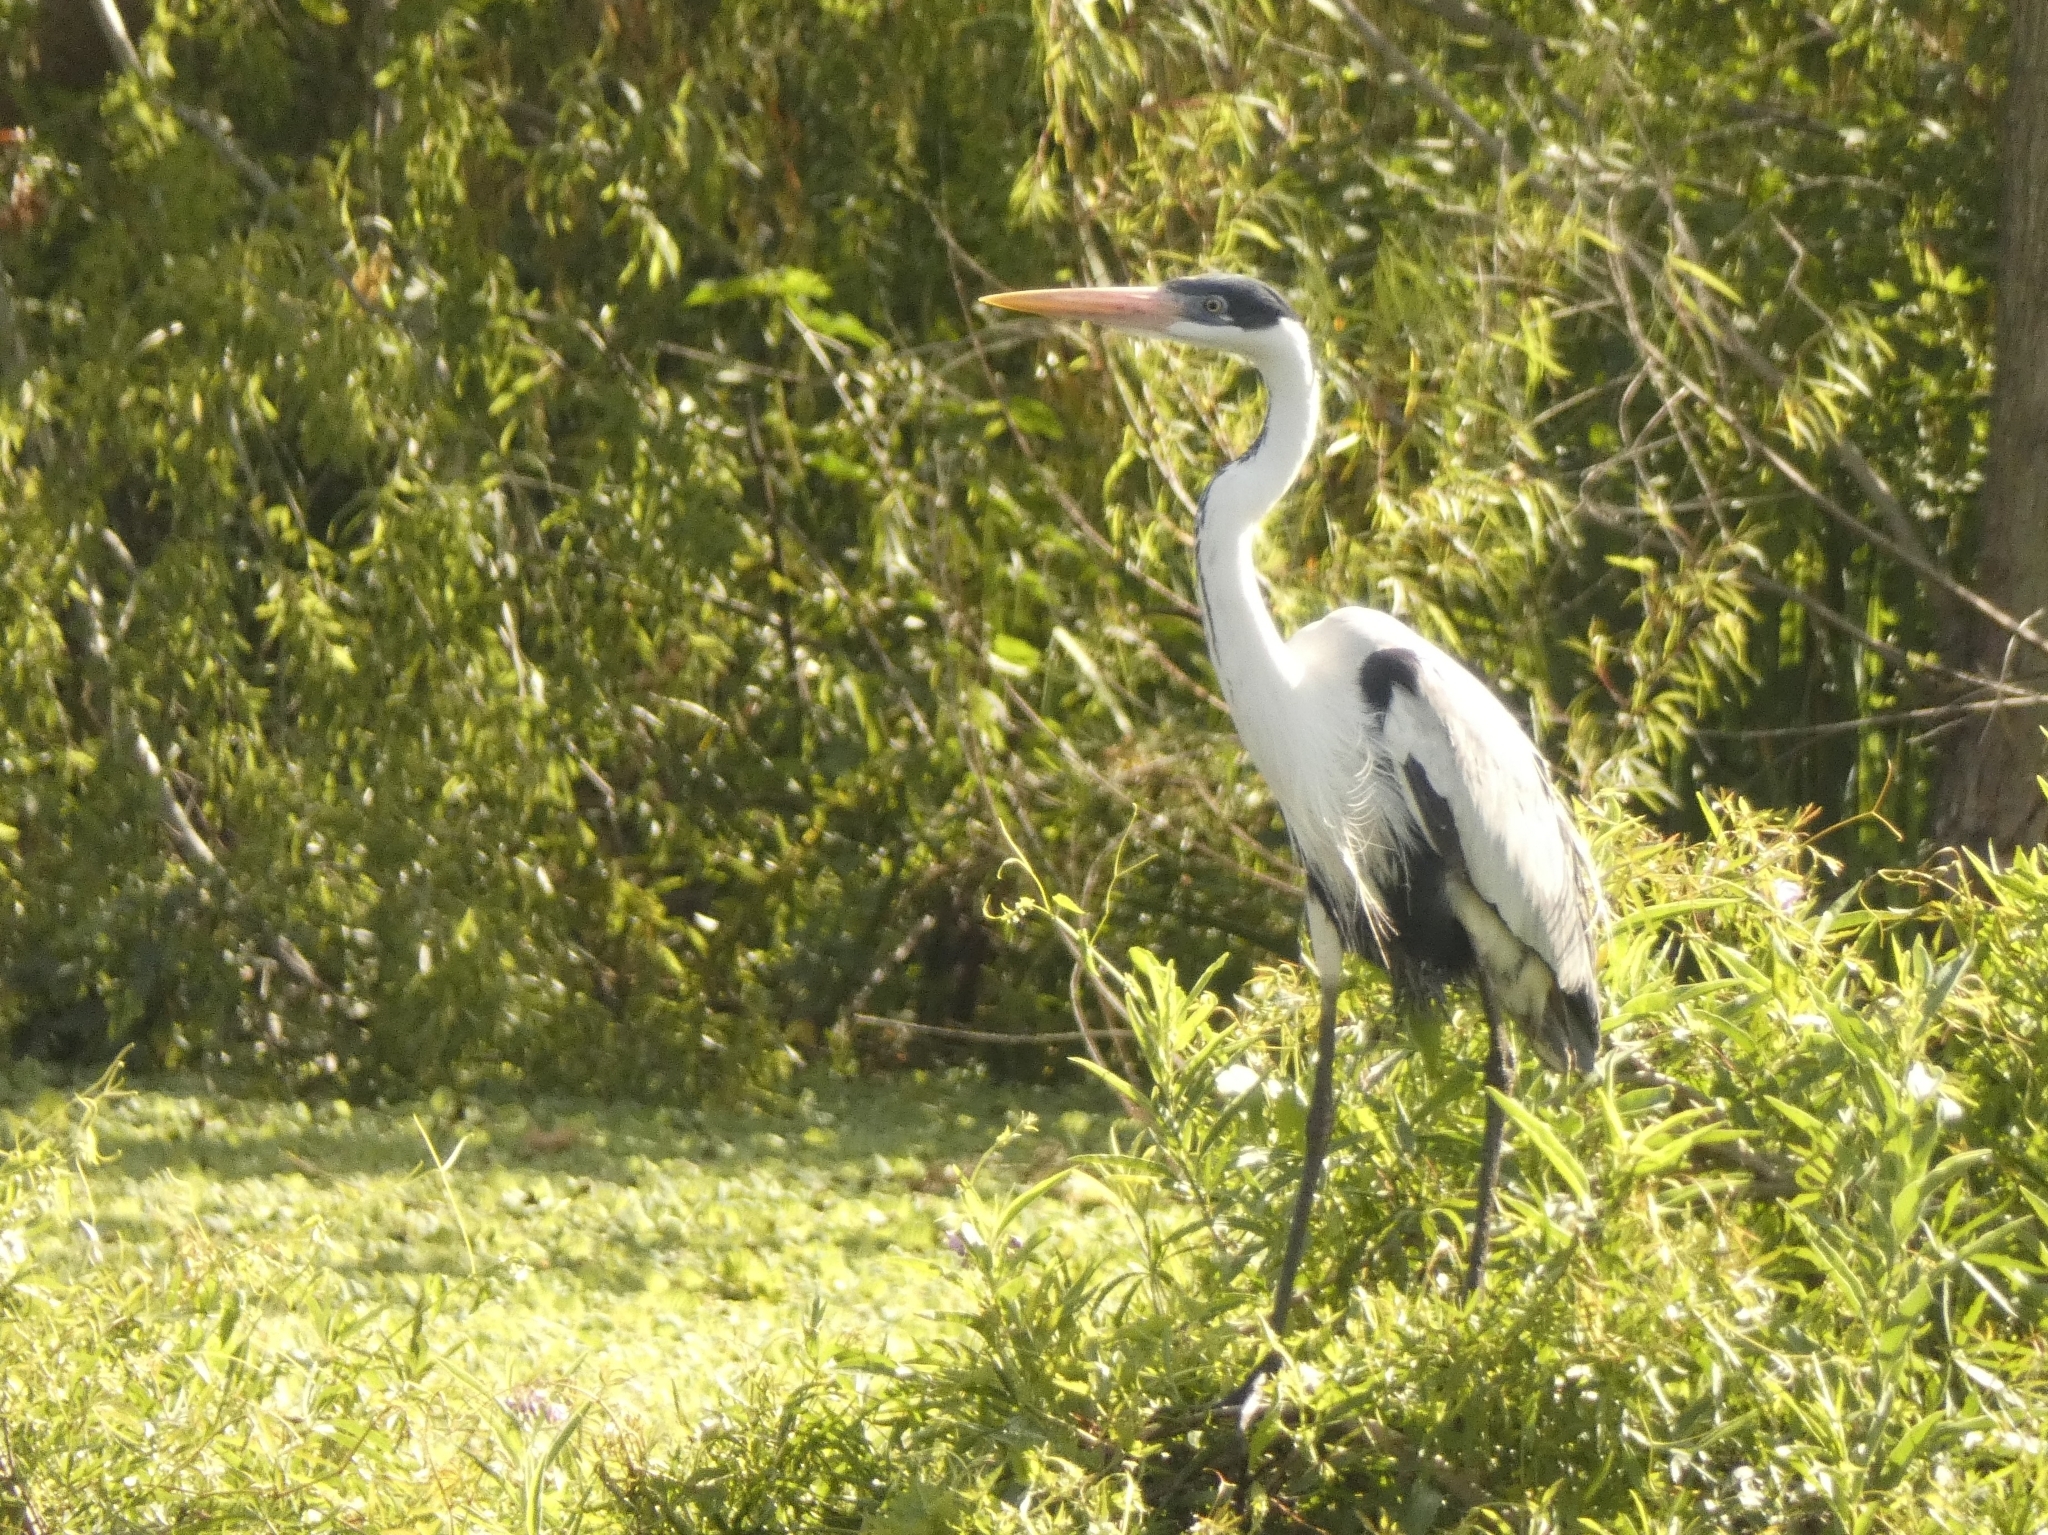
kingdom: Animalia
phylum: Chordata
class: Aves
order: Pelecaniformes
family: Ardeidae
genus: Ardea
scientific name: Ardea cocoi
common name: Cocoi heron
